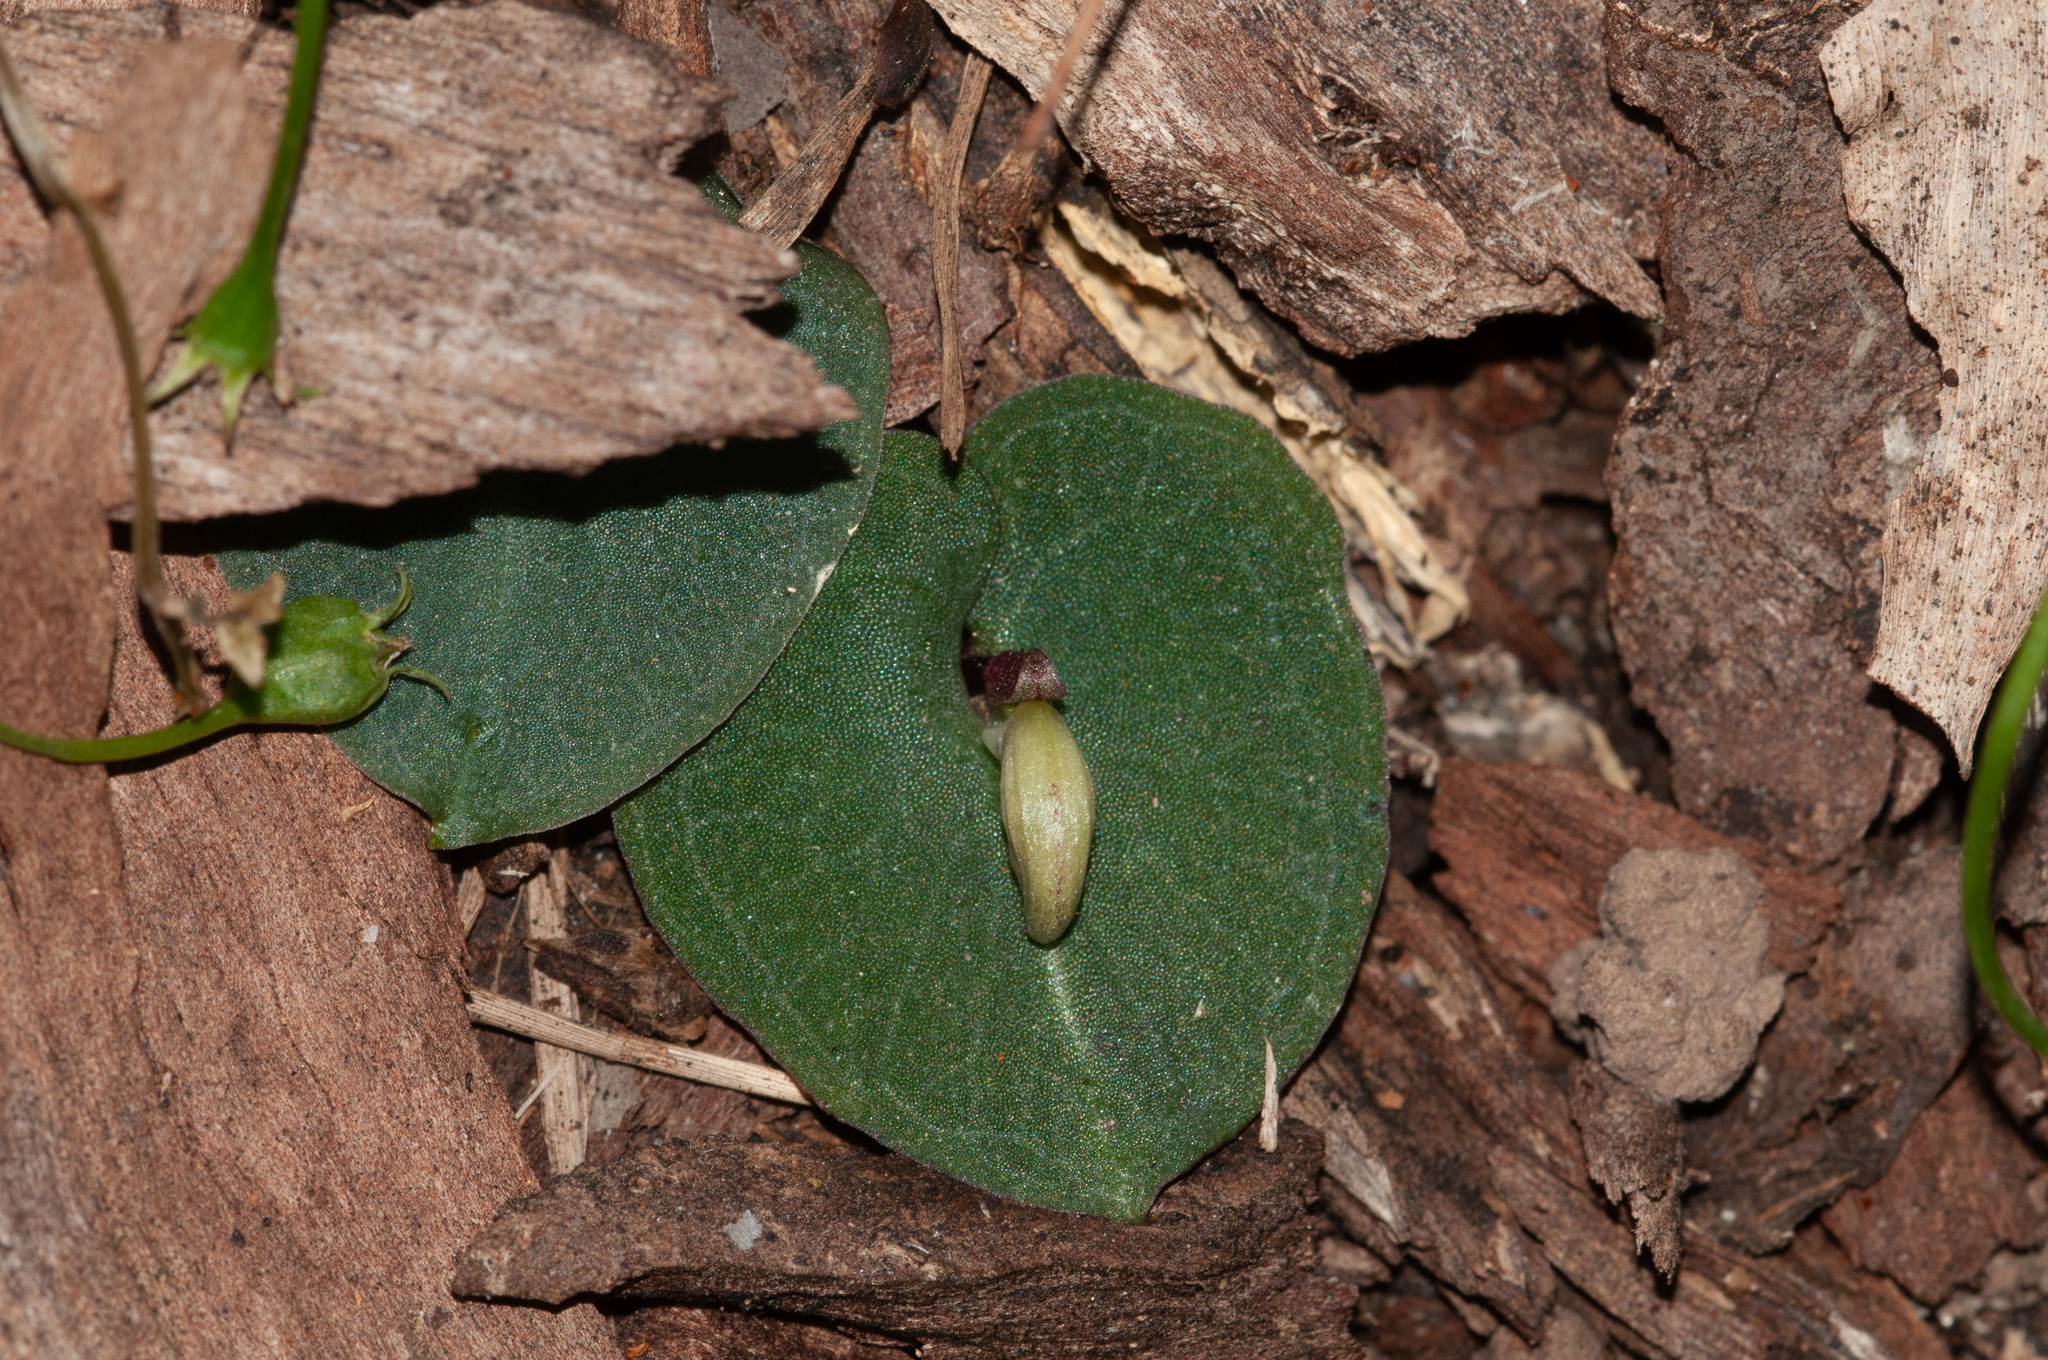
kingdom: Plantae
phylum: Tracheophyta
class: Liliopsida
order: Asparagales
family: Orchidaceae
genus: Corybas
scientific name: Corybas barbarae
